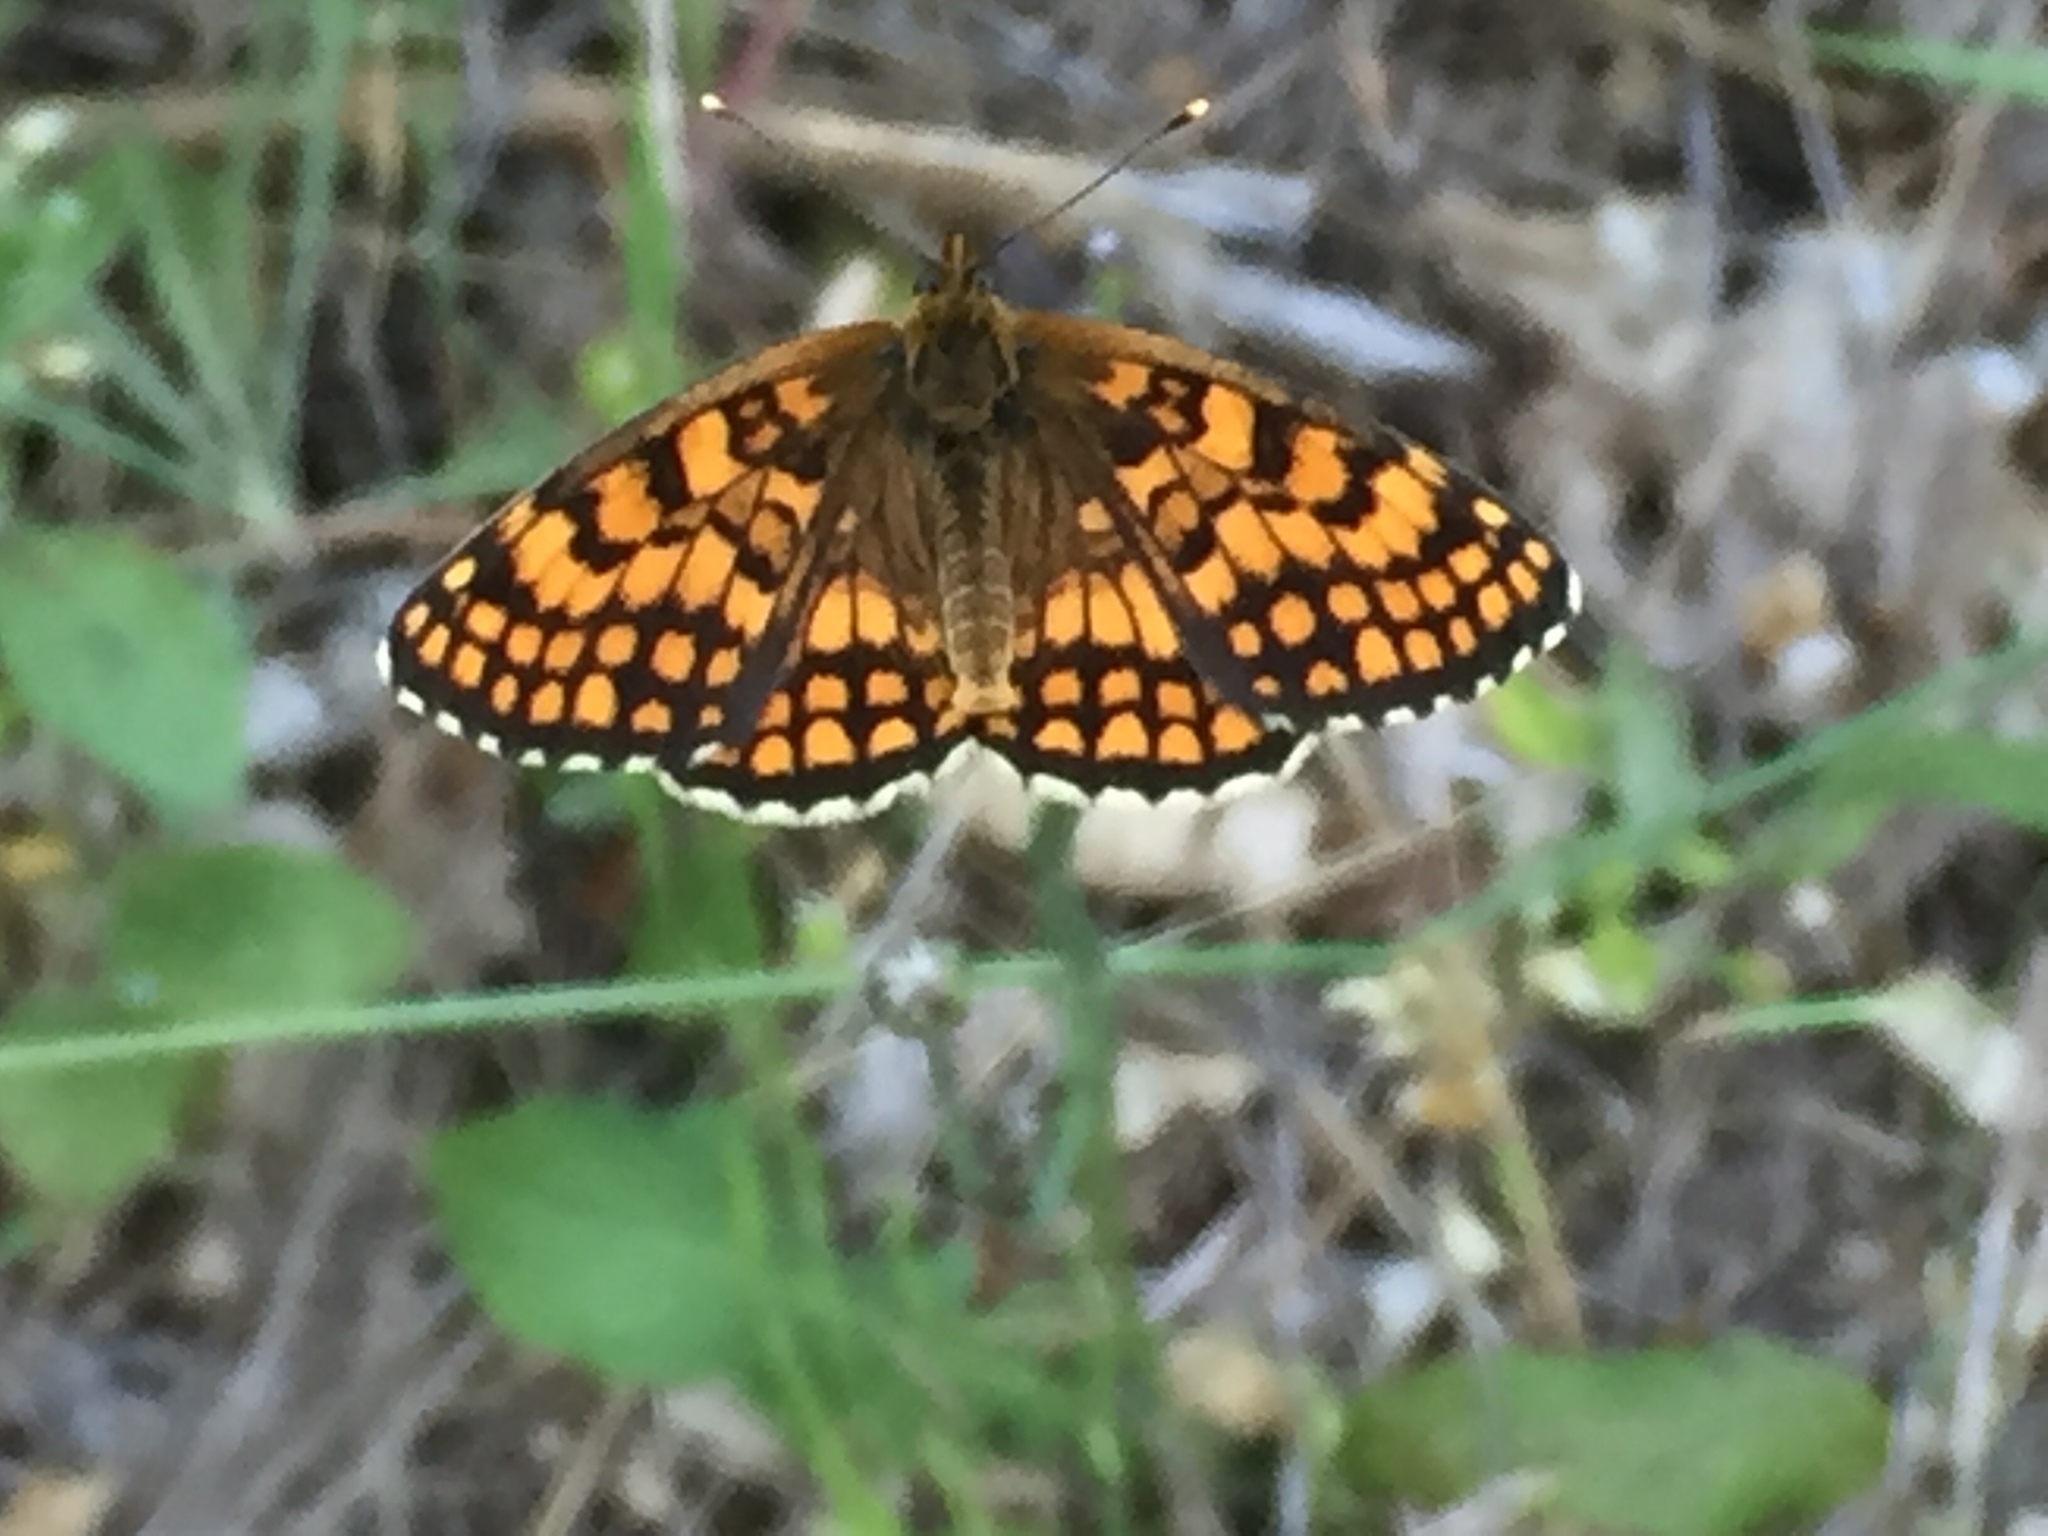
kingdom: Animalia
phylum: Arthropoda
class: Insecta
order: Lepidoptera
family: Nymphalidae
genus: Mellicta
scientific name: Mellicta athalia
